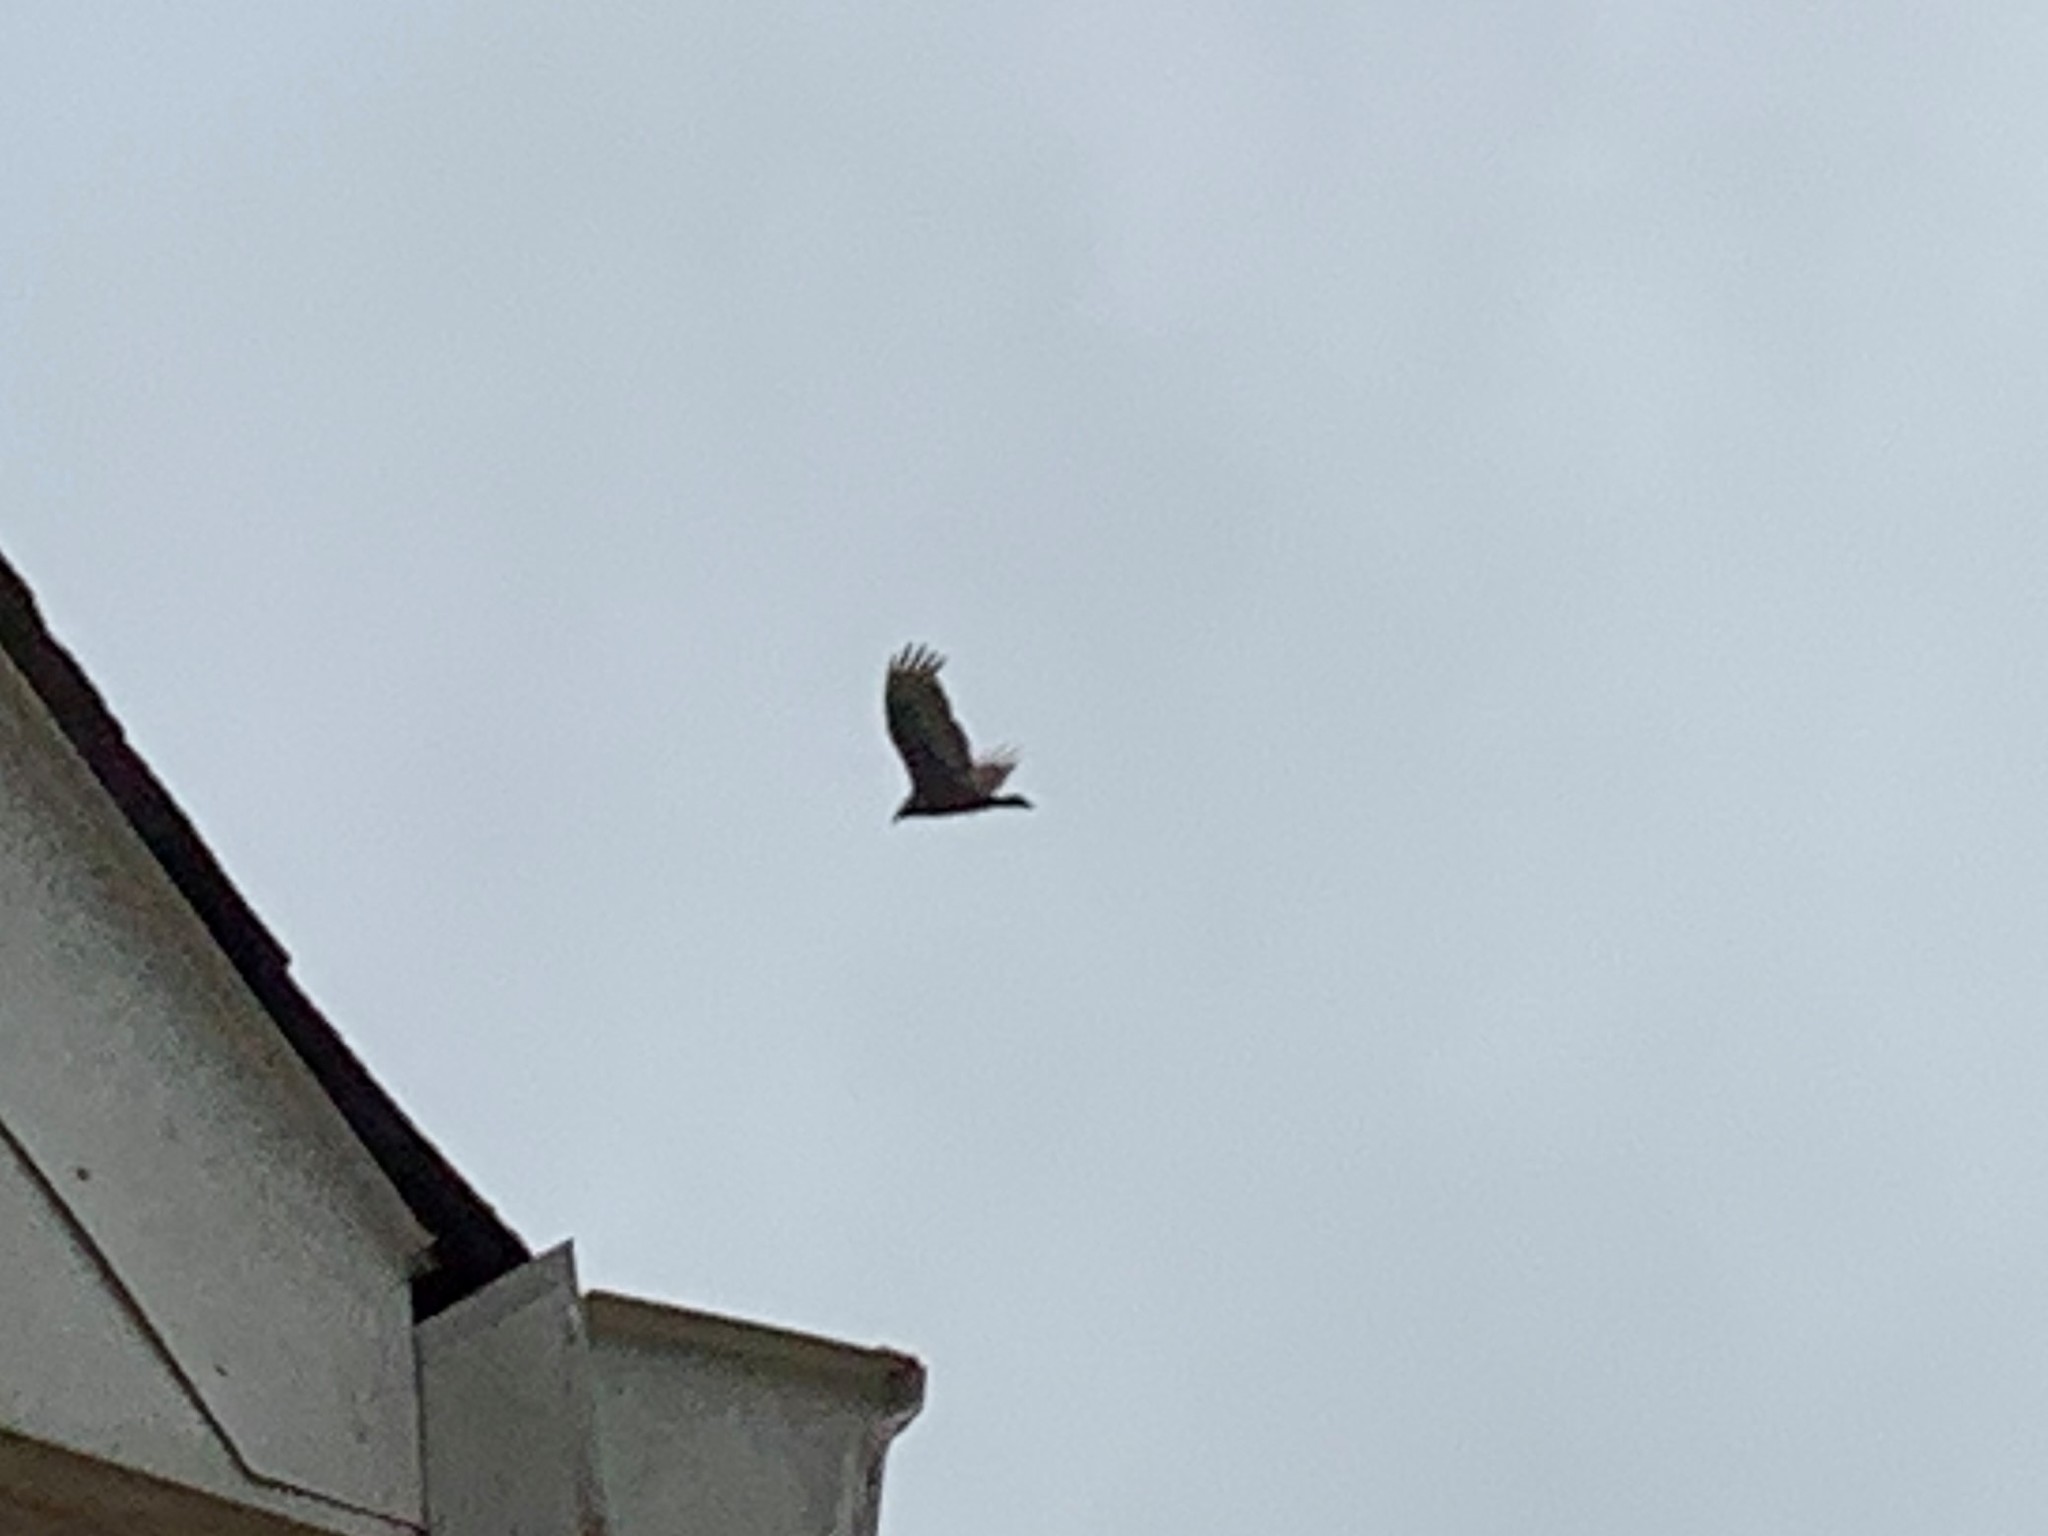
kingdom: Animalia
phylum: Chordata
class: Aves
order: Accipitriformes
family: Cathartidae
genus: Cathartes
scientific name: Cathartes aura
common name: Turkey vulture
